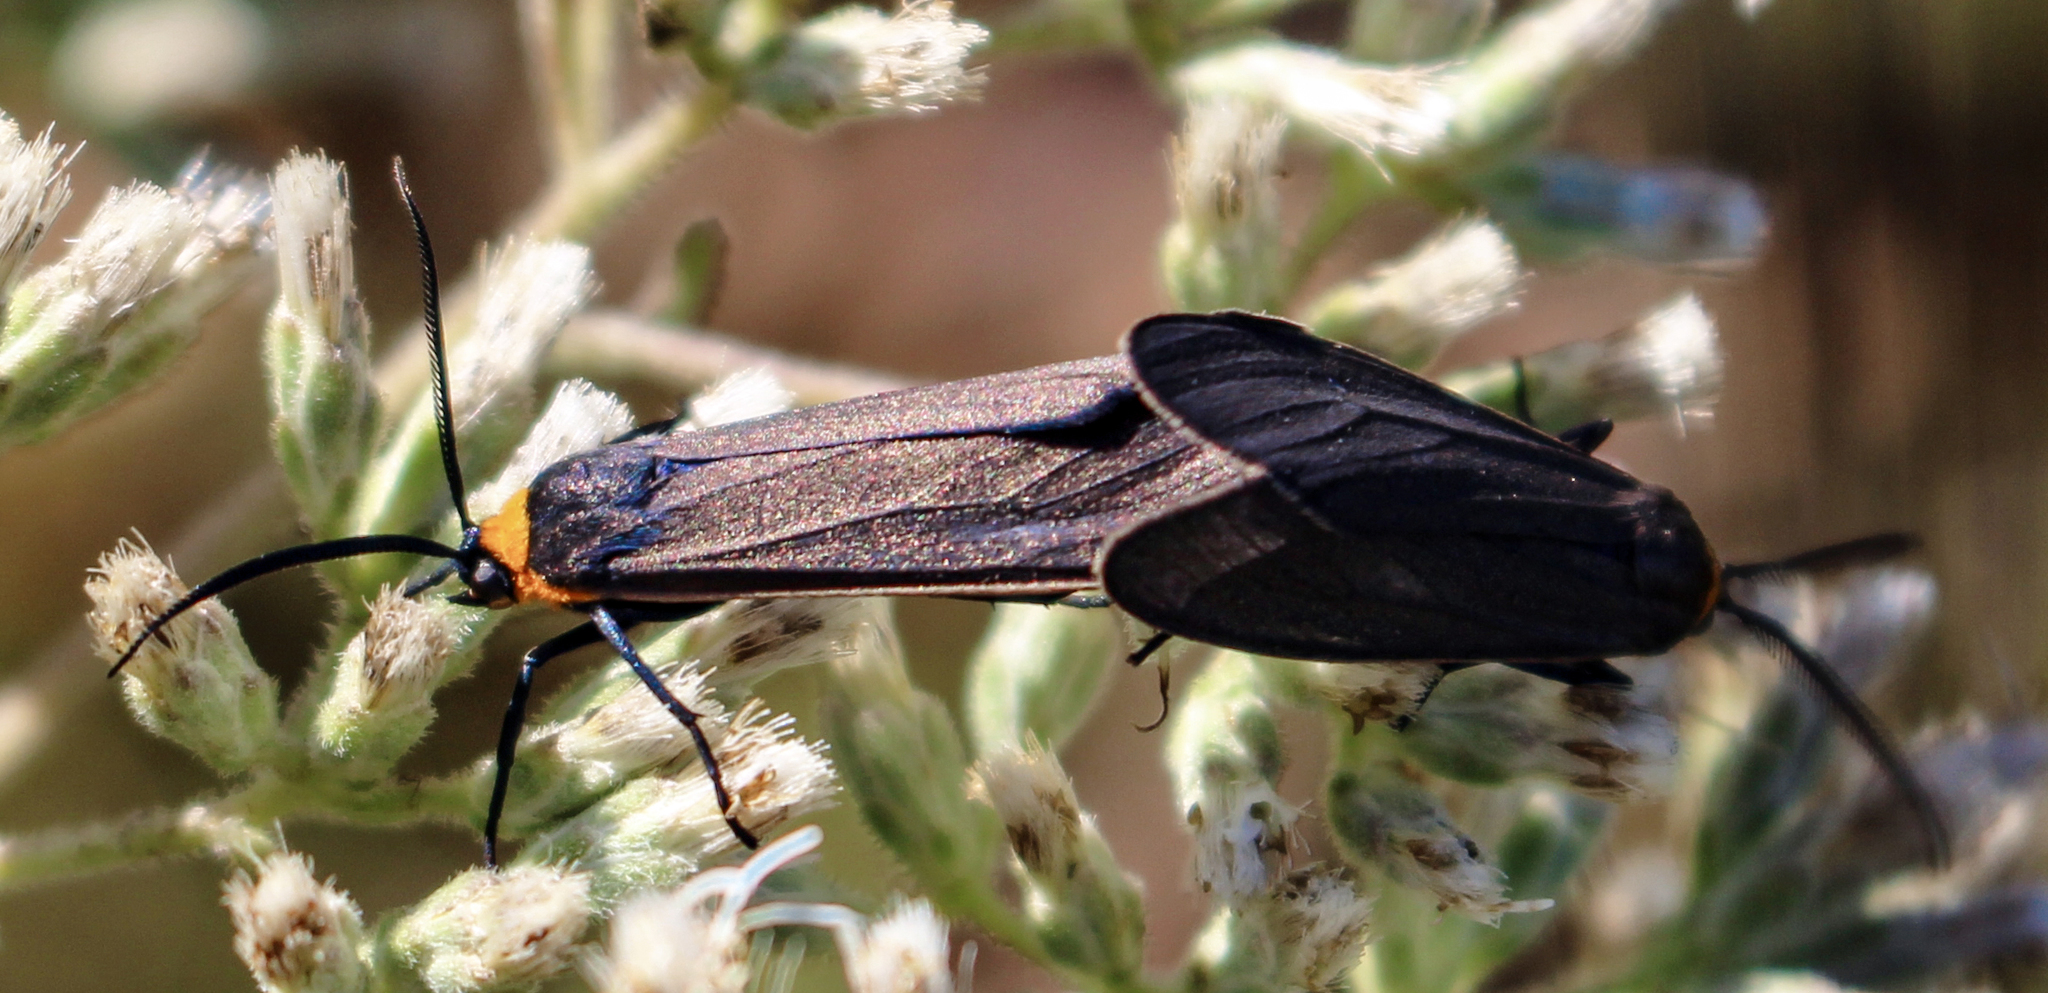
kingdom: Animalia
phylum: Arthropoda
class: Insecta
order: Lepidoptera
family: Erebidae
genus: Cisseps
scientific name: Cisseps fulvicollis
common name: Yellow-collared scape moth
